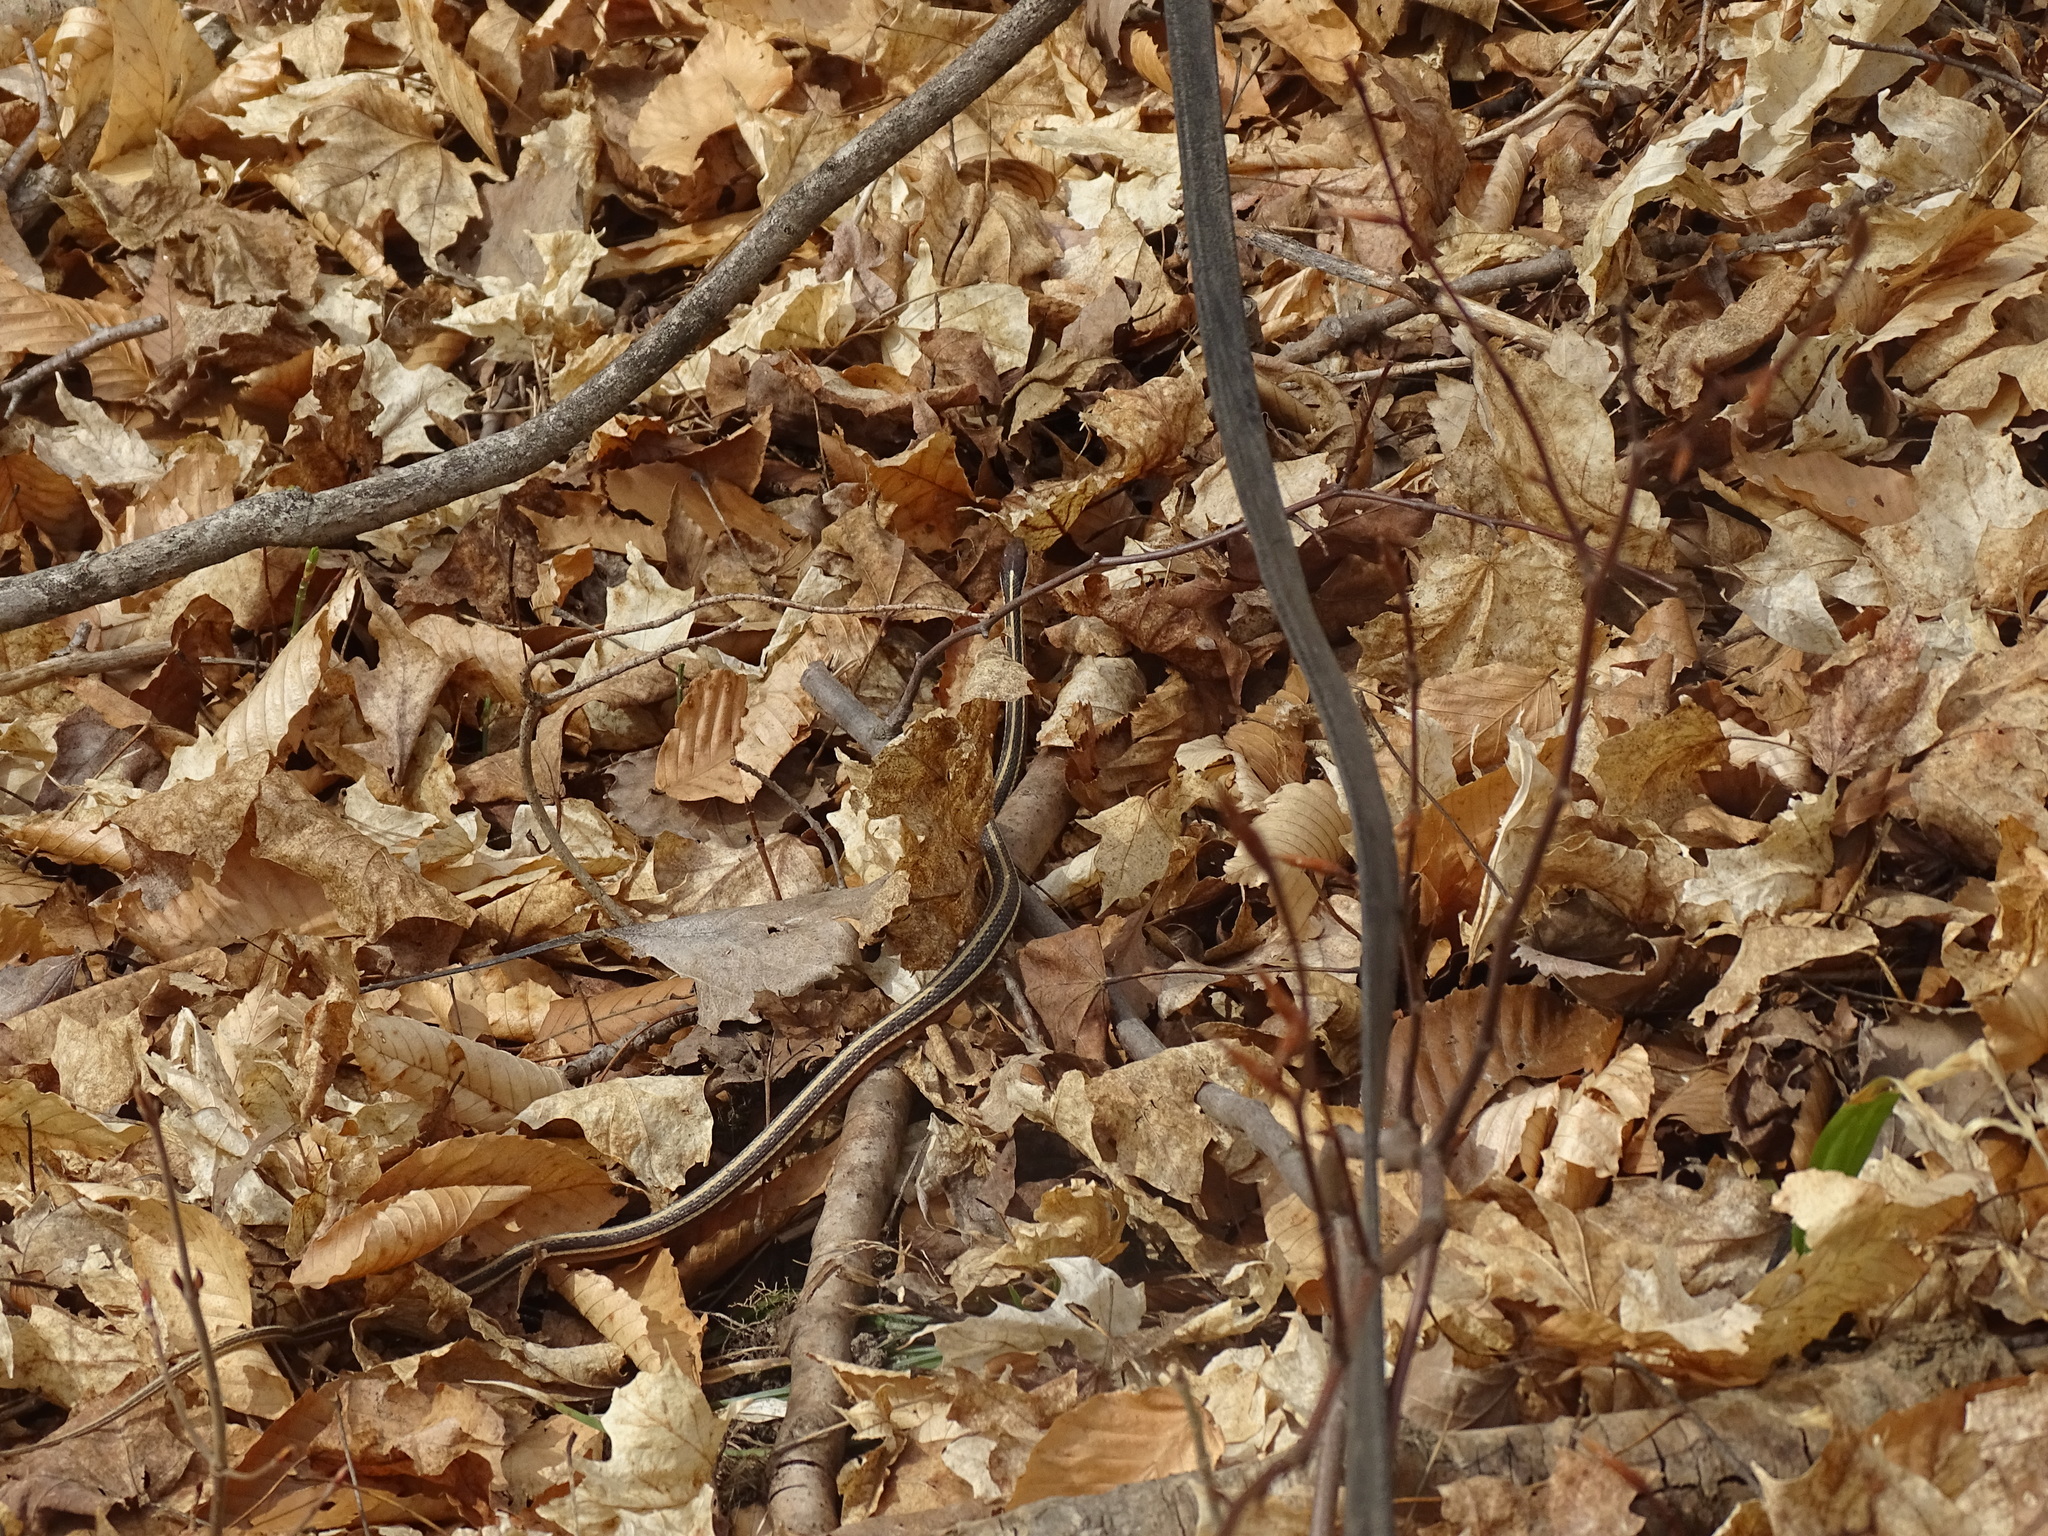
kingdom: Animalia
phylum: Chordata
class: Squamata
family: Colubridae
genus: Thamnophis
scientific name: Thamnophis saurita
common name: Eastern ribbonsnake
